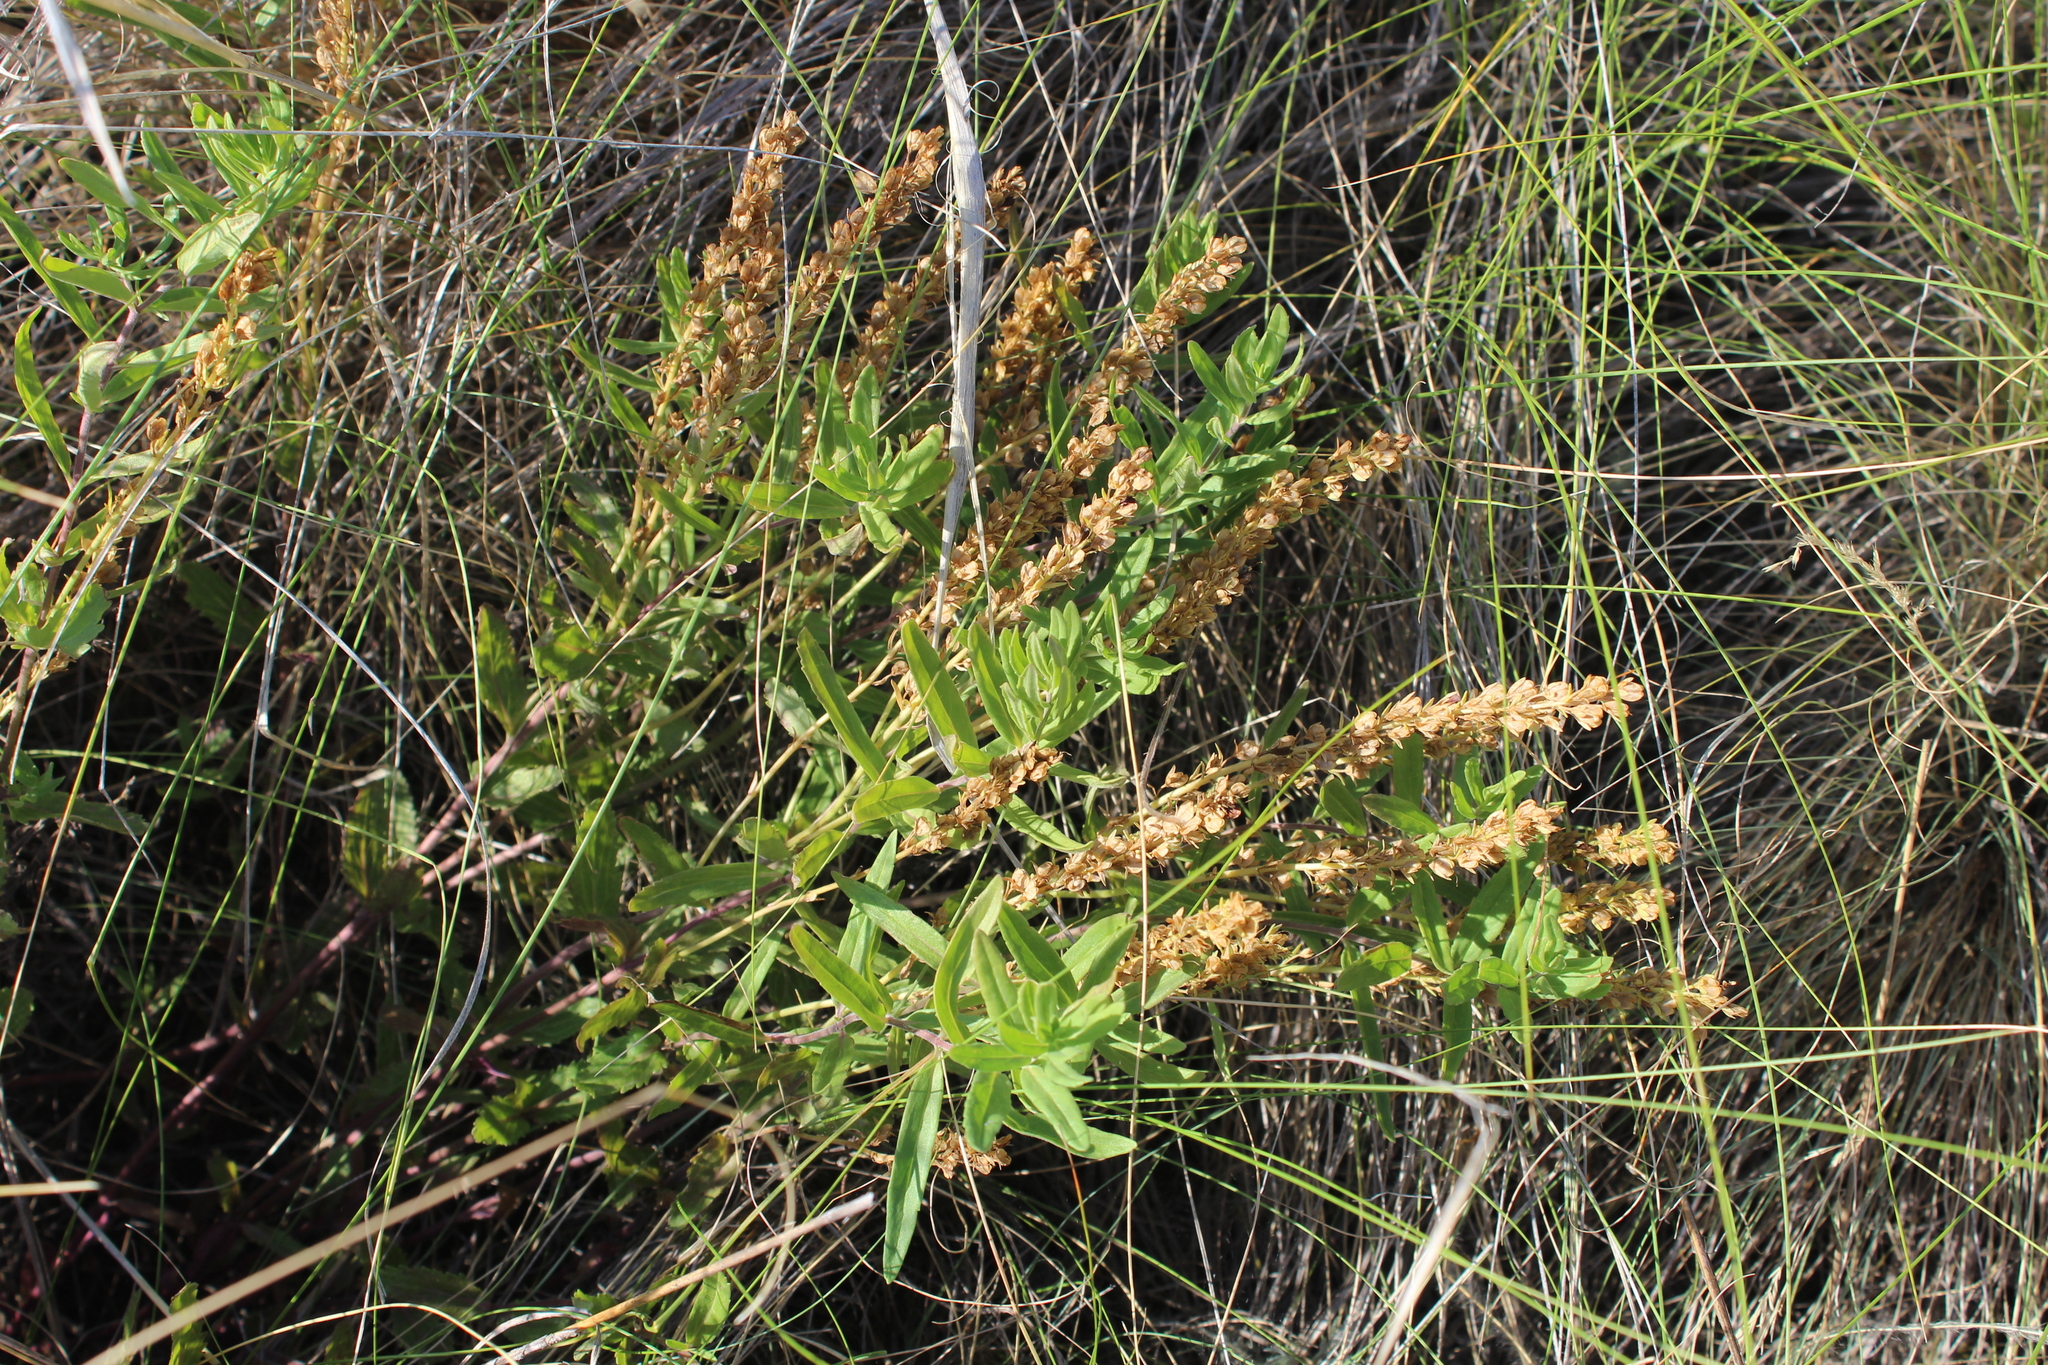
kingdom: Plantae
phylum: Tracheophyta
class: Magnoliopsida
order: Lamiales
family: Plantaginaceae
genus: Veronica
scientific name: Veronica prostrata
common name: Prostrate speedwell
